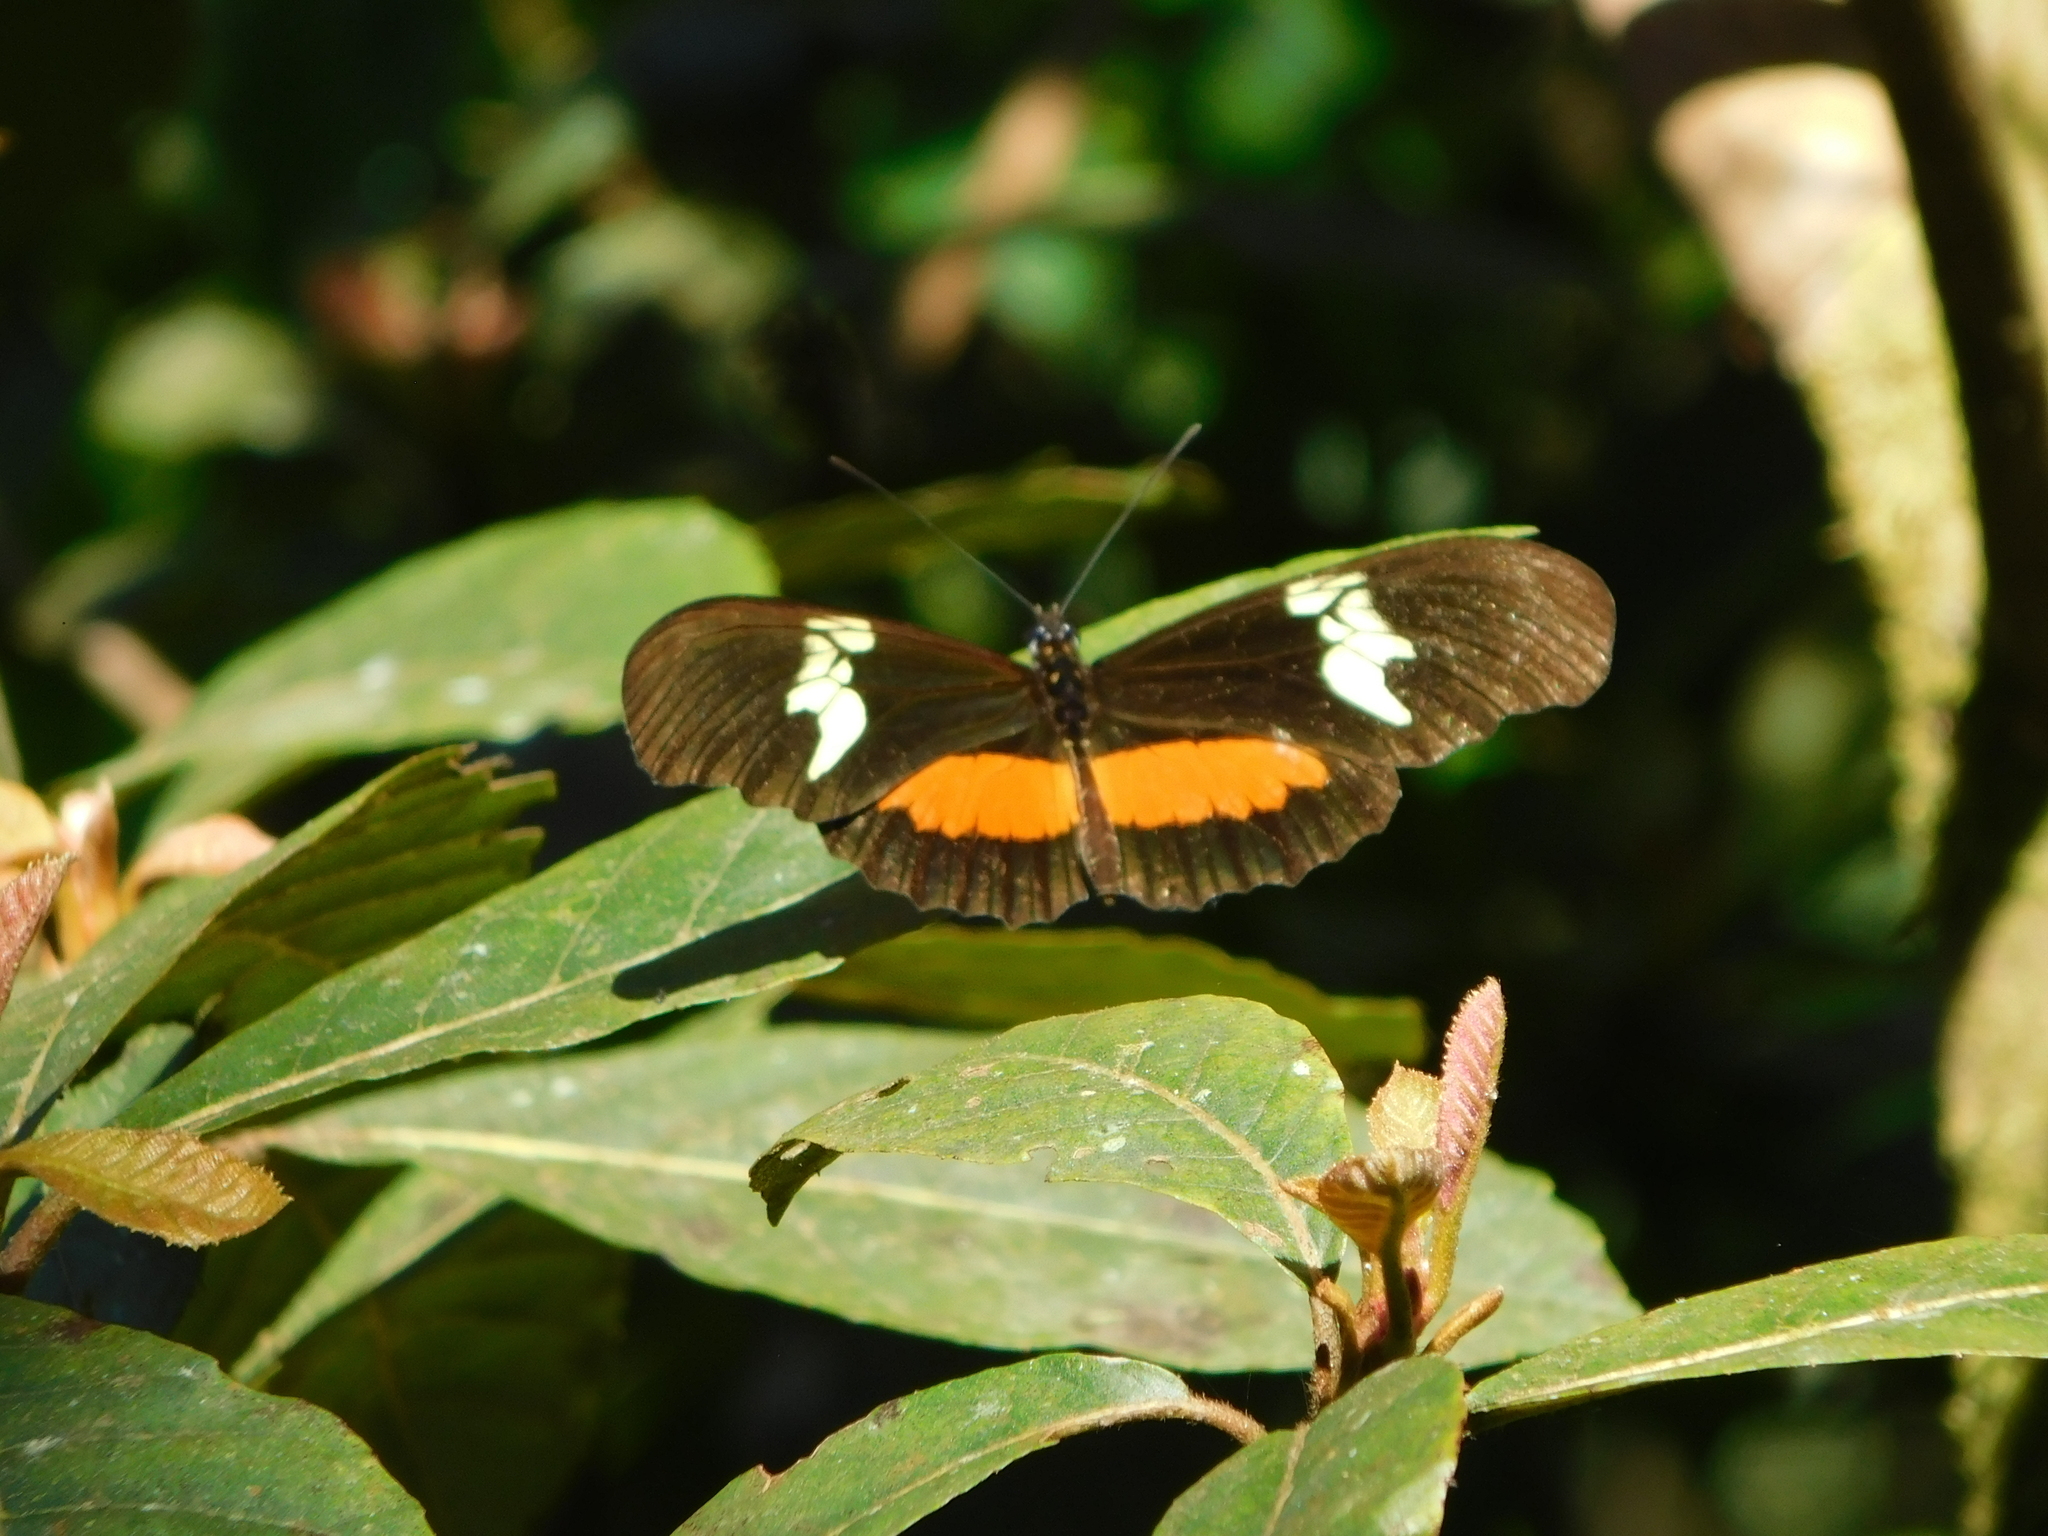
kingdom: Animalia
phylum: Arthropoda
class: Insecta
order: Lepidoptera
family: Nymphalidae
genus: Heliconius
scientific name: Heliconius hortense
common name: Mexican longwing
